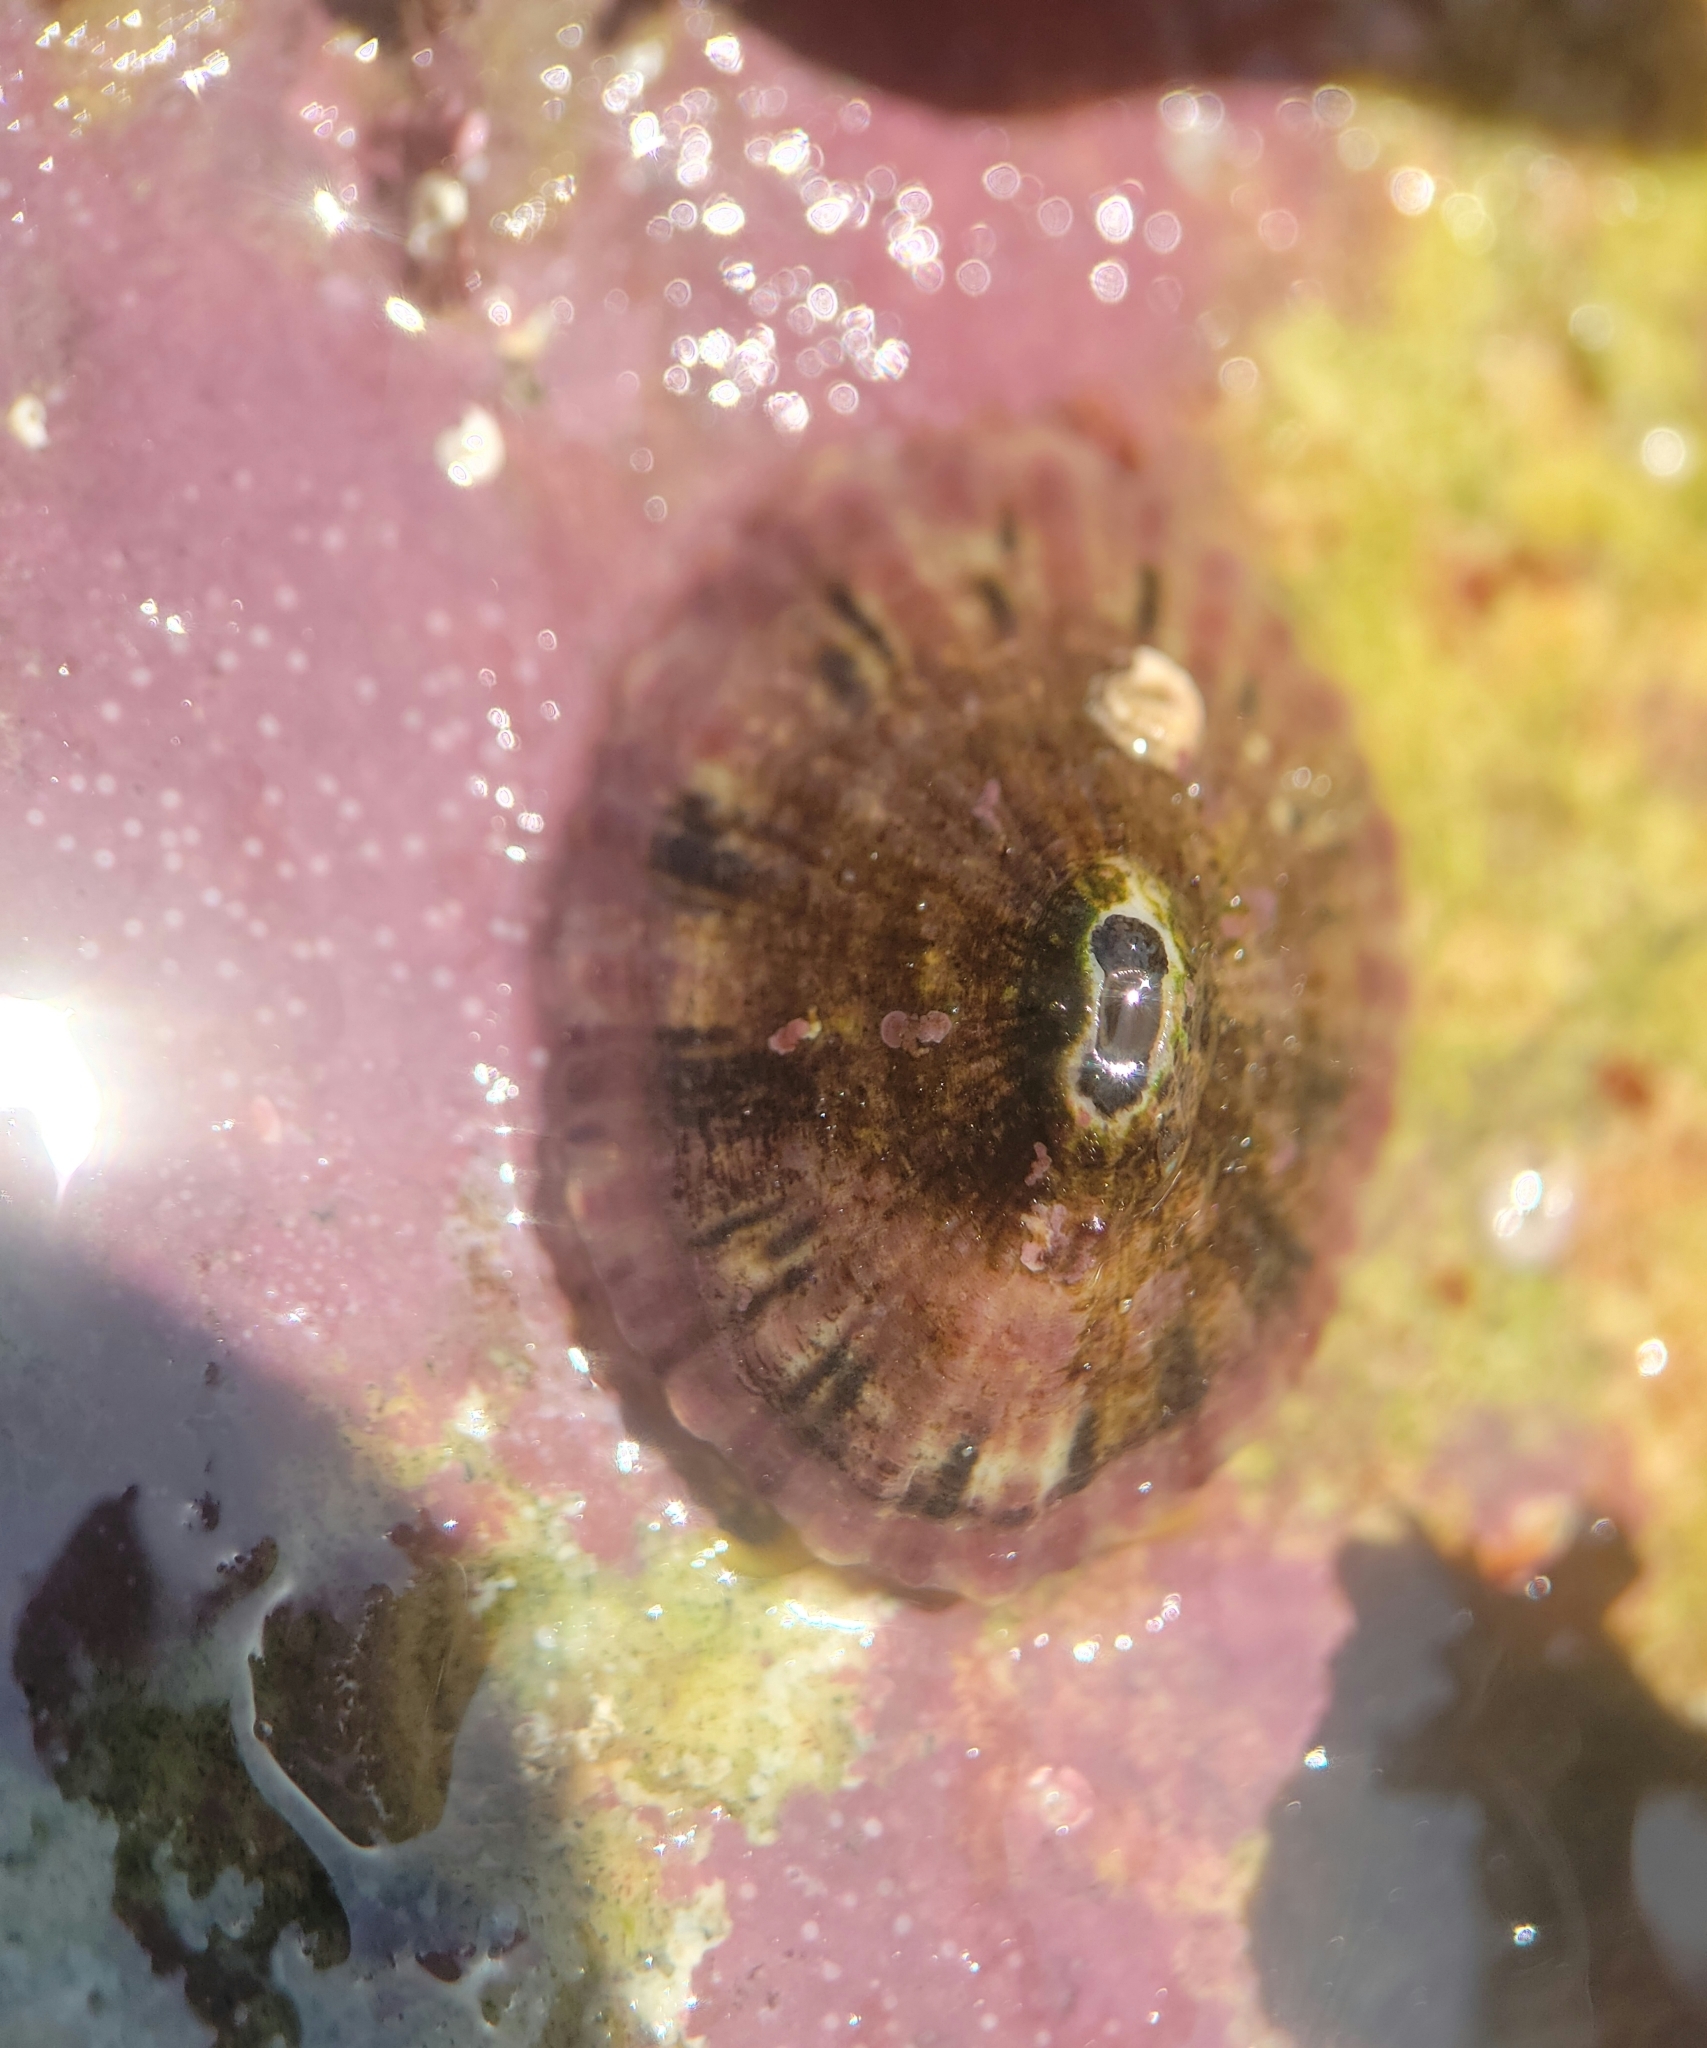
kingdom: Animalia
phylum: Mollusca
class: Gastropoda
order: Lepetellida
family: Fissurellidae
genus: Fissurella
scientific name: Fissurella volcano
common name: Volcano keyhole limpet
